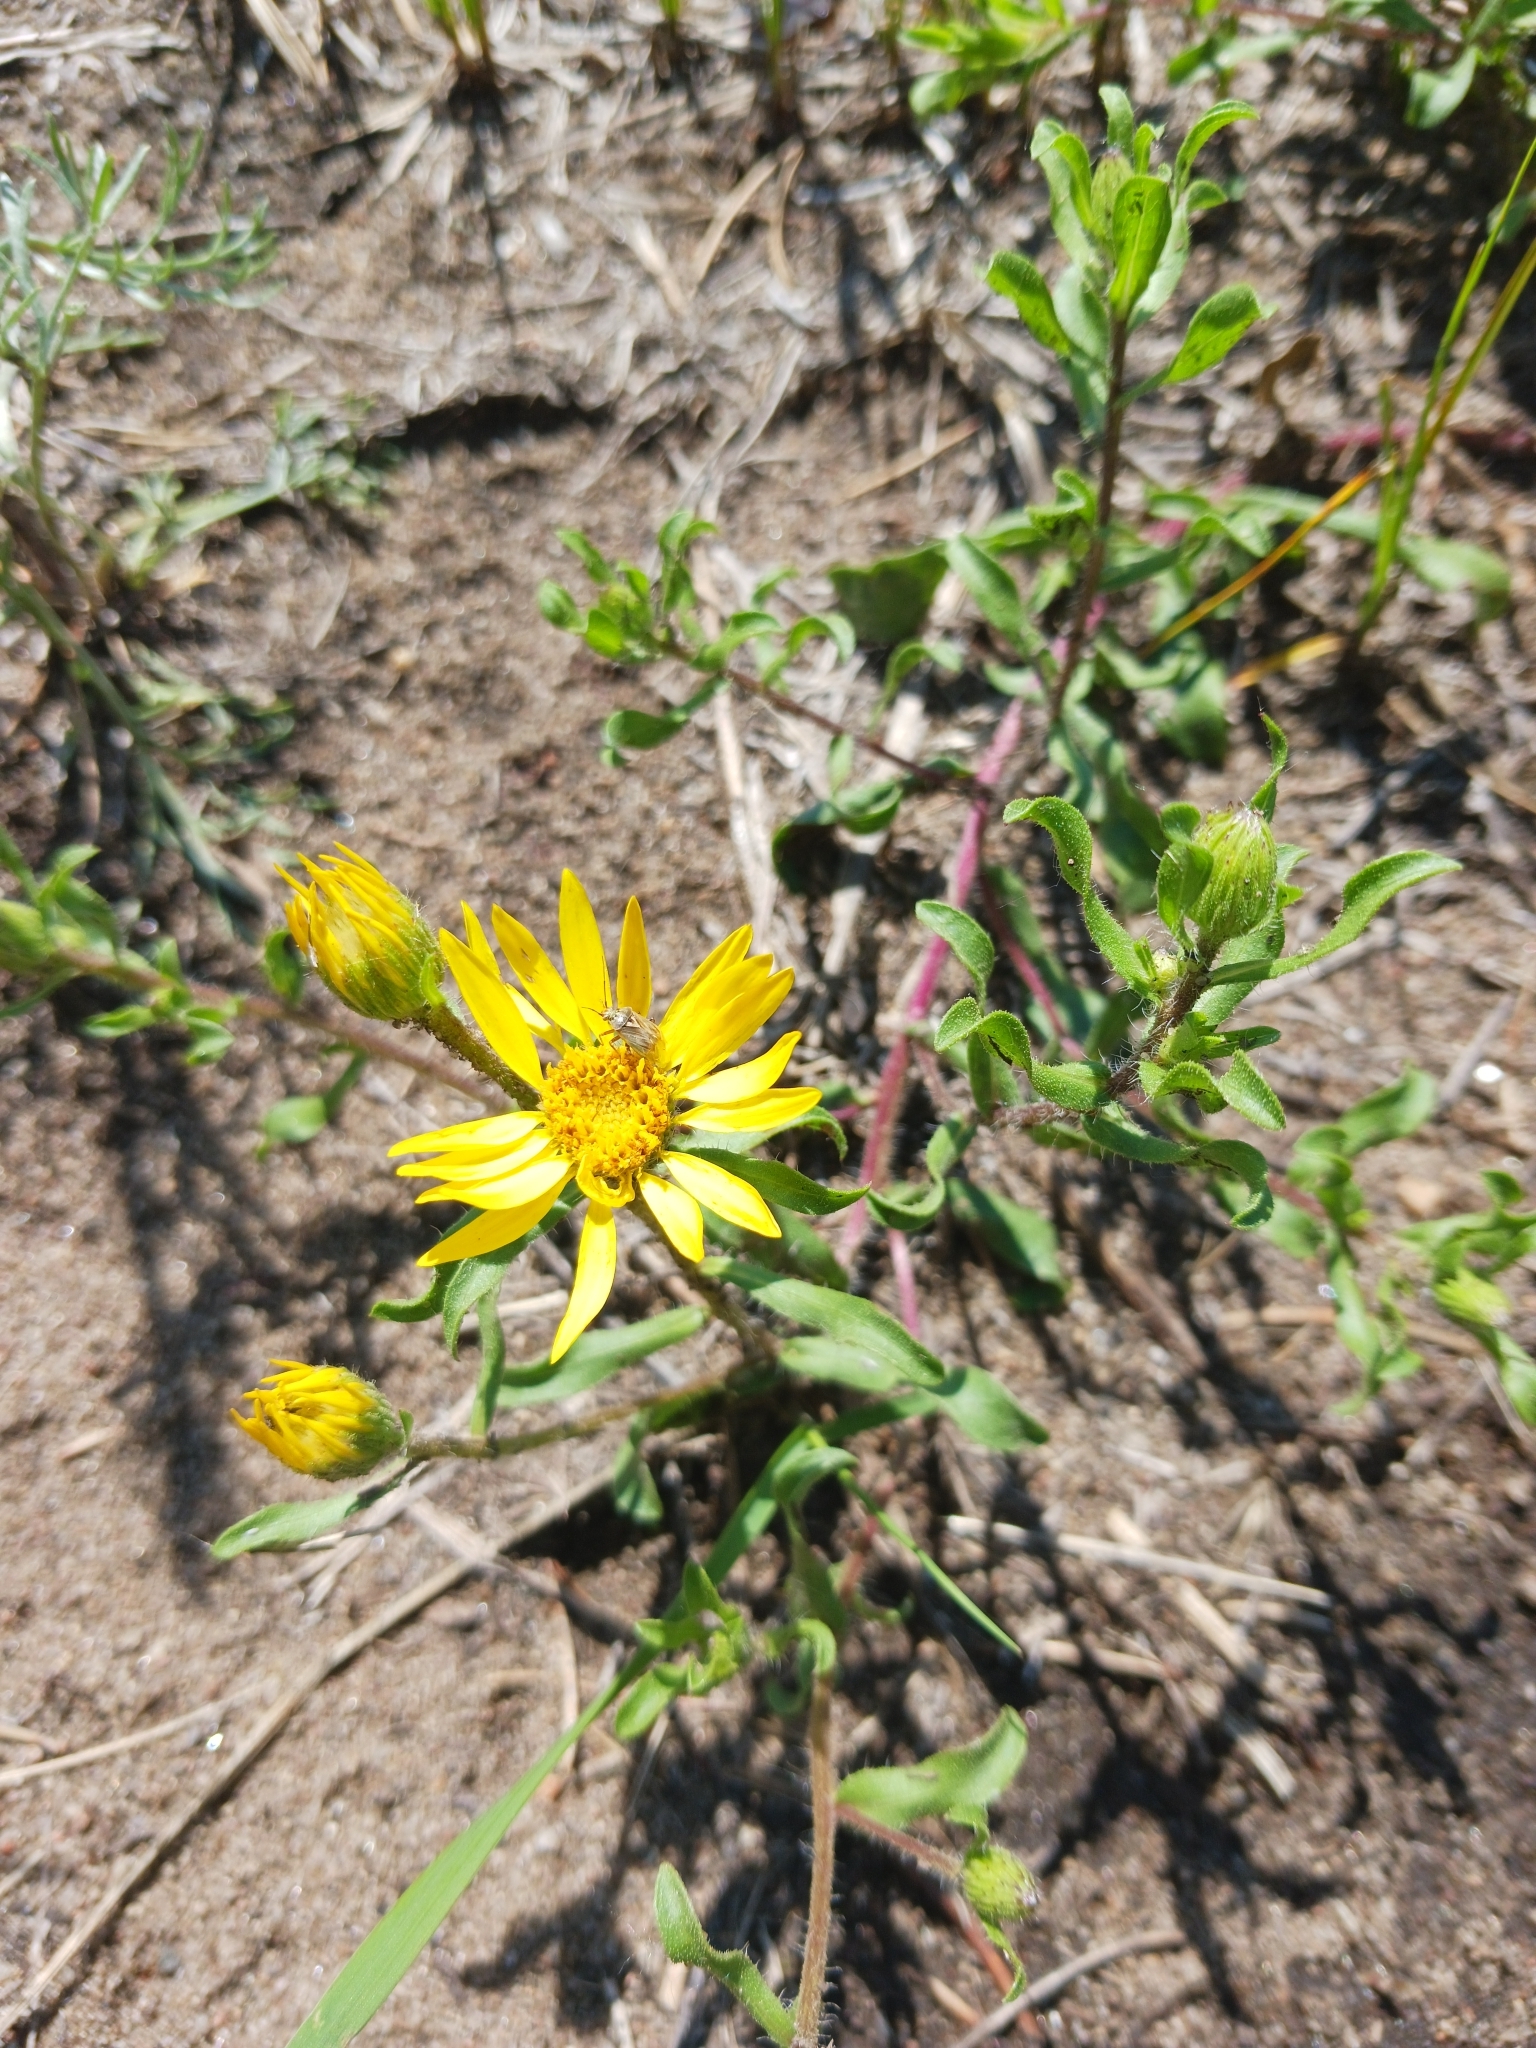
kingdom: Plantae
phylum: Tracheophyta
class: Magnoliopsida
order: Asterales
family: Asteraceae
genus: Heterotheca
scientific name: Heterotheca villosa
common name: Hairy false goldenaster
